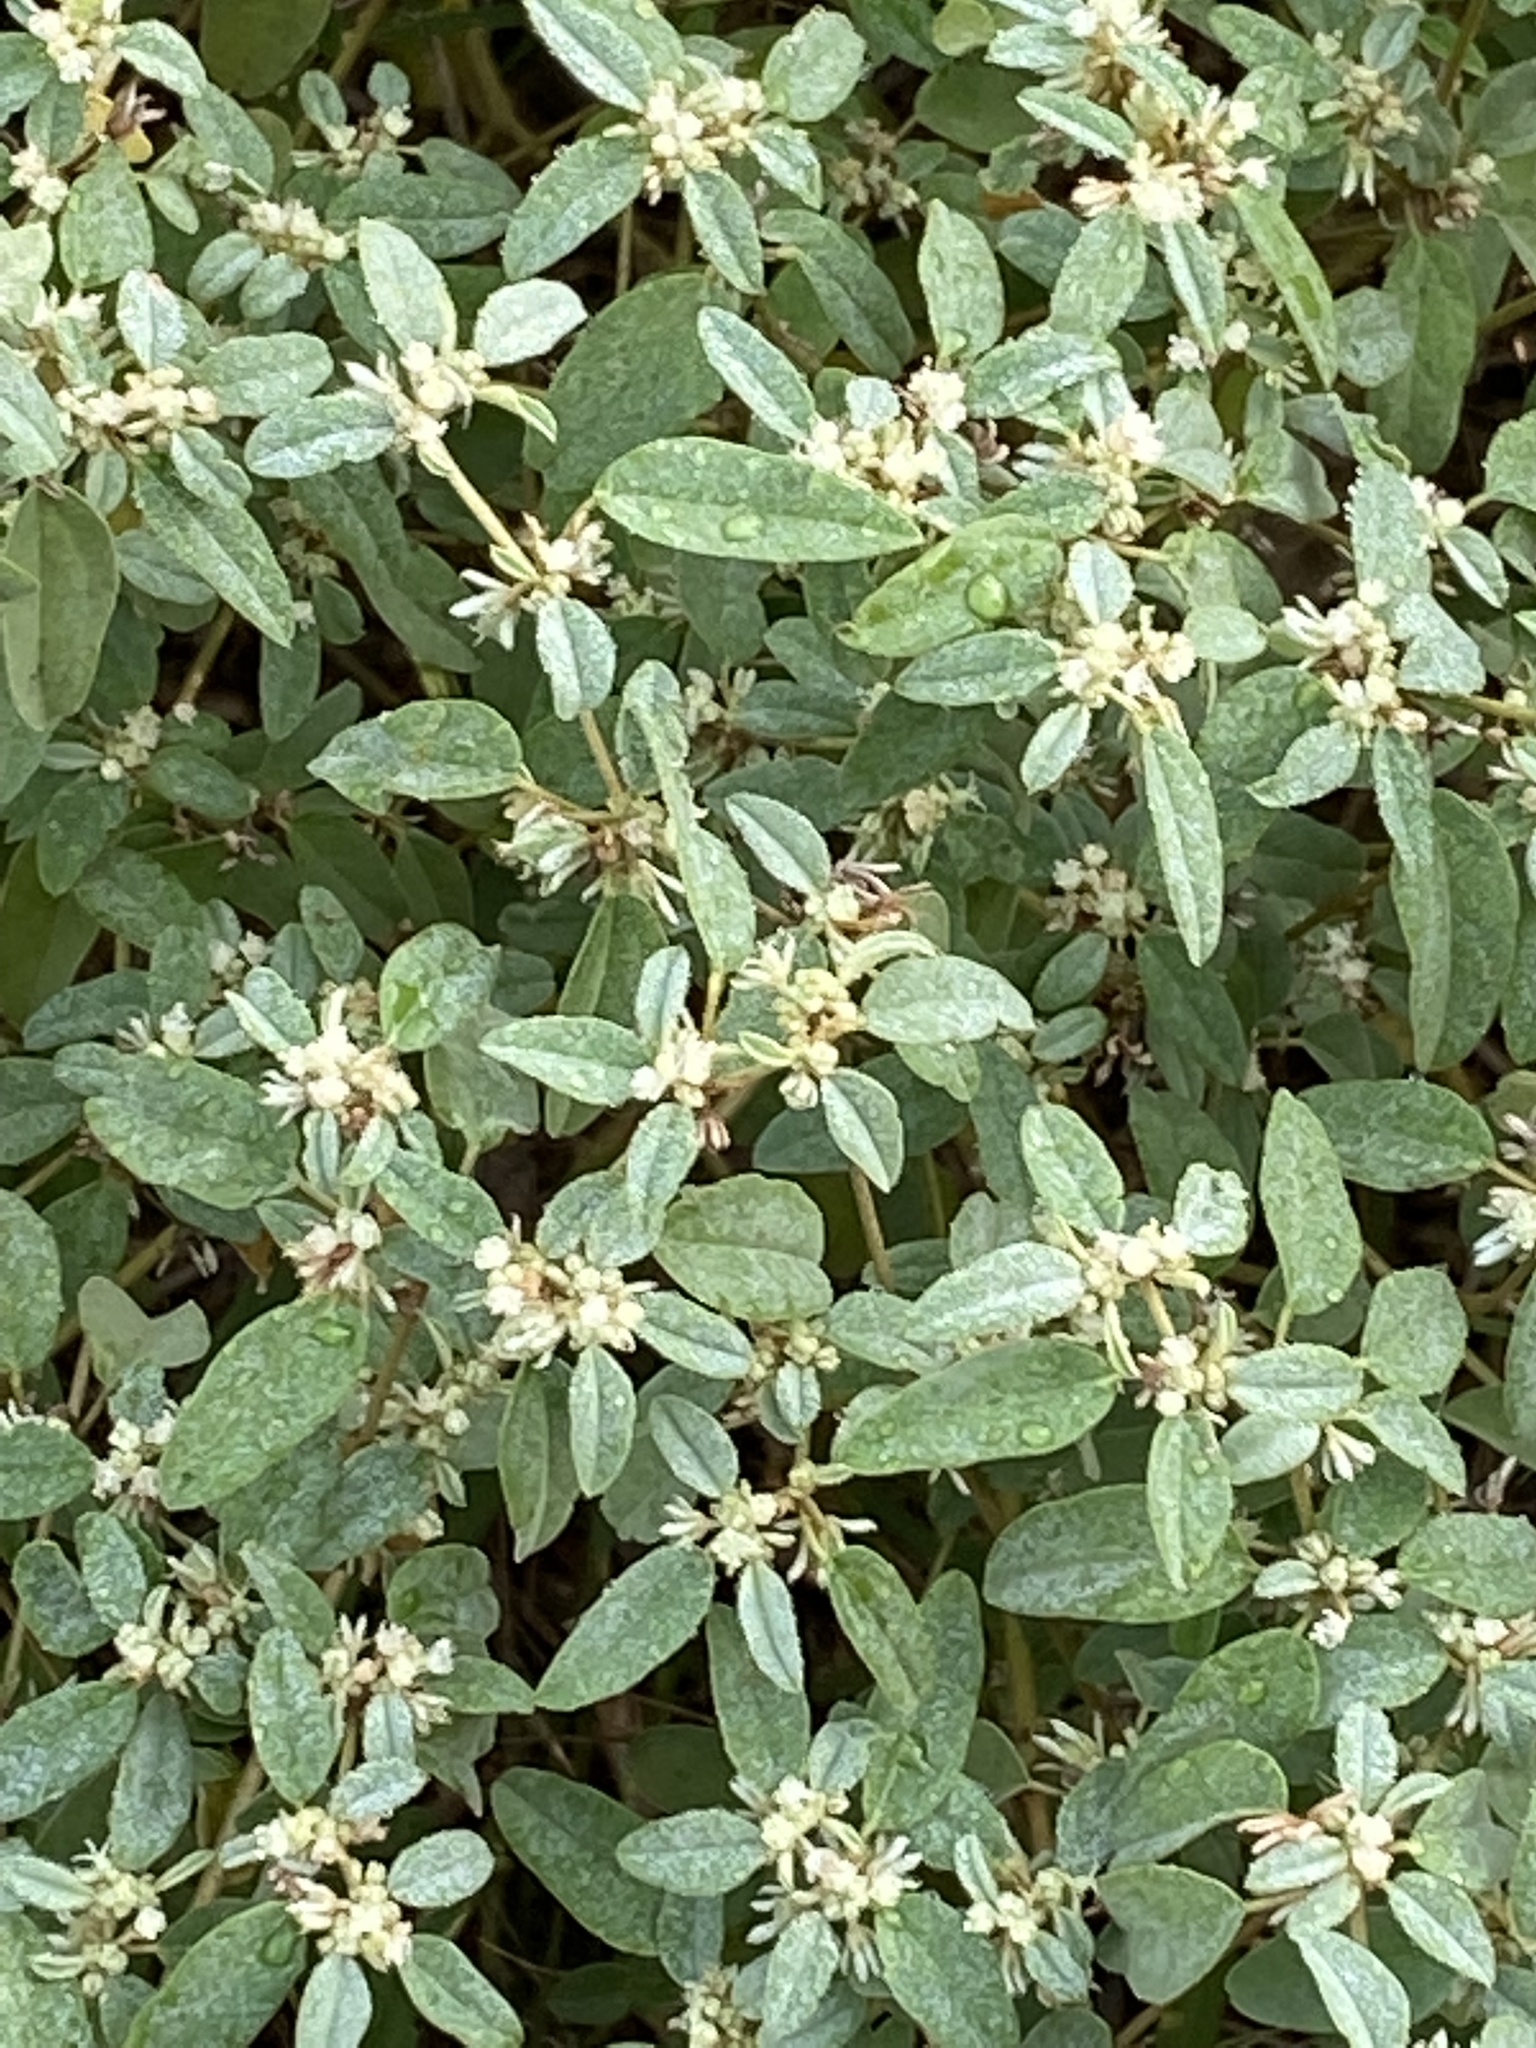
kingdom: Plantae
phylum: Tracheophyta
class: Magnoliopsida
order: Malpighiales
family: Euphorbiaceae
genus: Croton
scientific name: Croton monanthogynus
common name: One-seed croton
